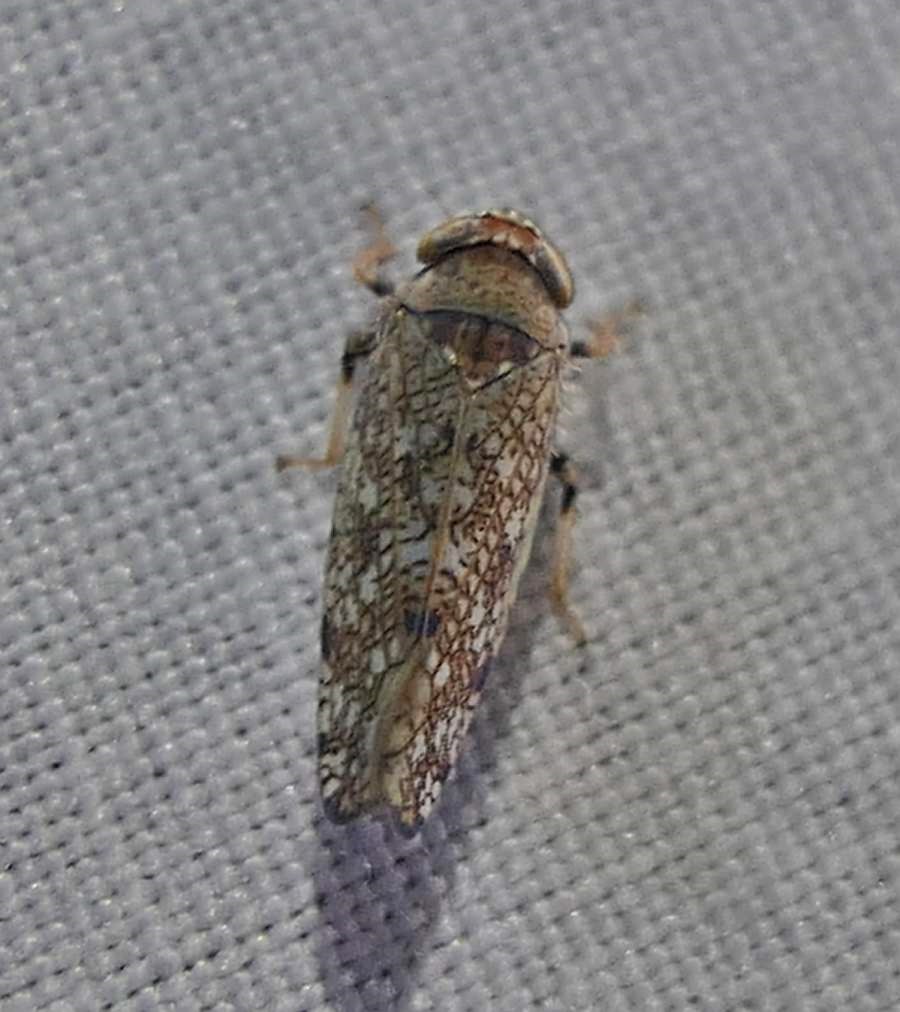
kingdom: Animalia
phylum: Arthropoda
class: Insecta
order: Hemiptera
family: Cicadellidae
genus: Orientus
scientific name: Orientus ishidae
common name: Japanese leafhopper
